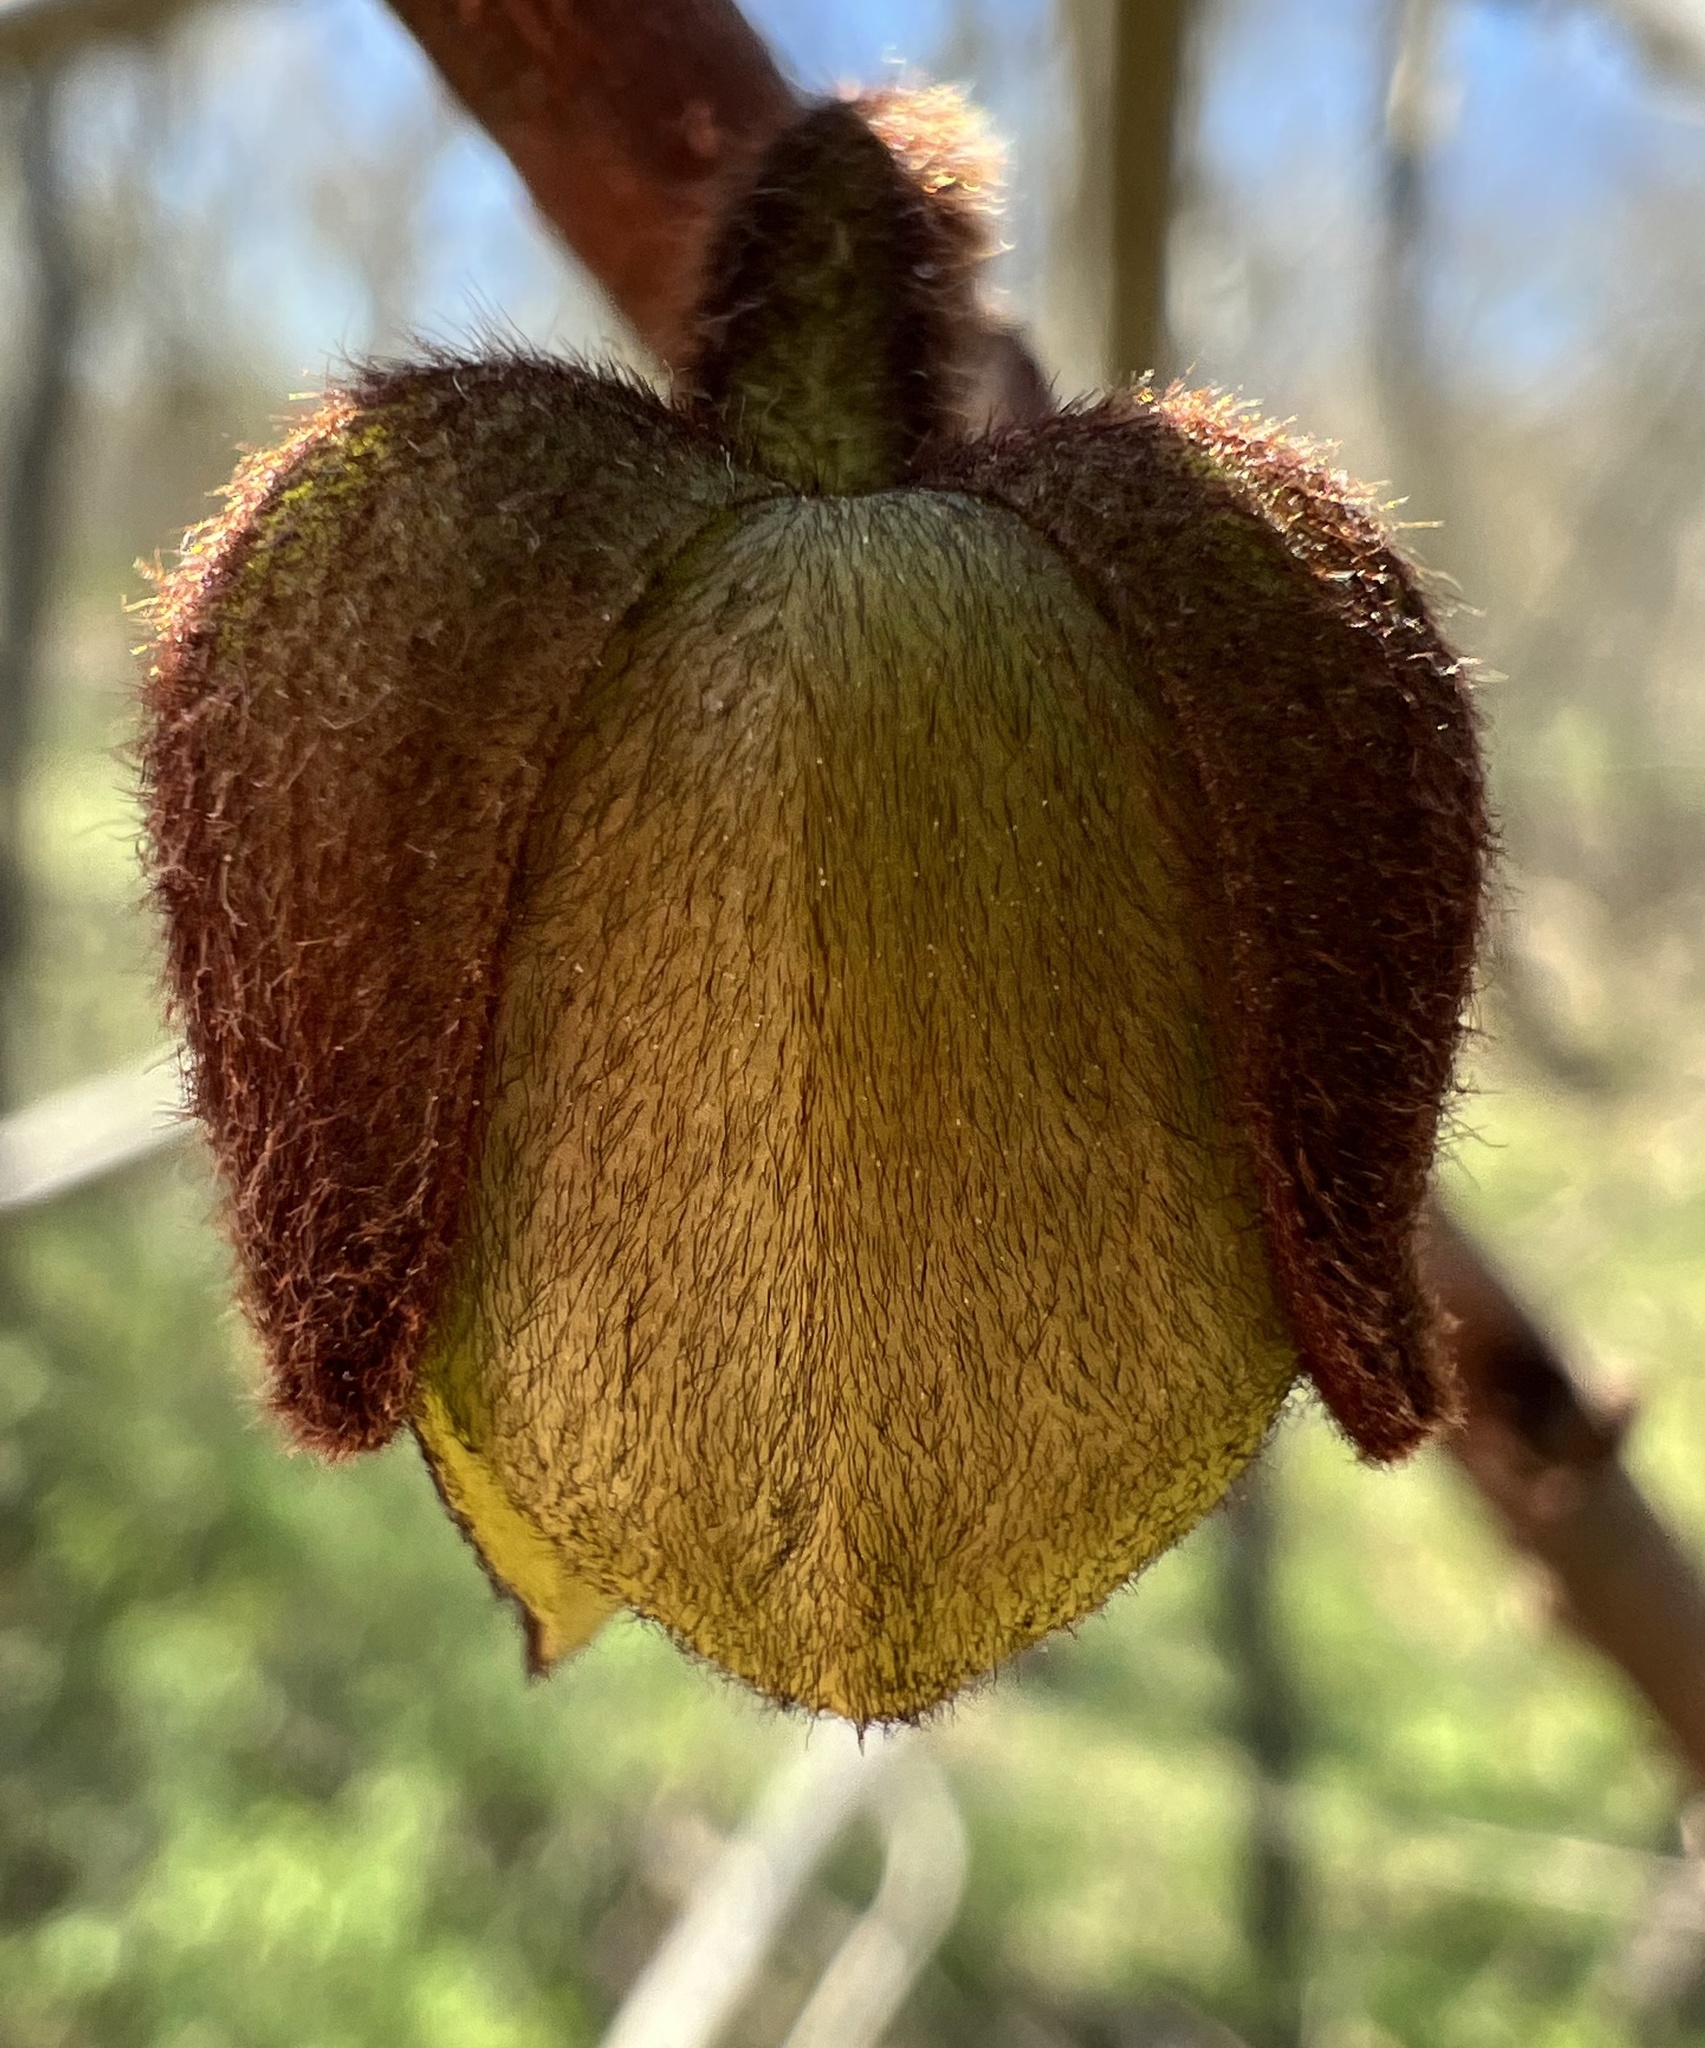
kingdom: Plantae
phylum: Tracheophyta
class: Magnoliopsida
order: Magnoliales
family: Annonaceae
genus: Asimina
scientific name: Asimina triloba
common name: Dog-banana
